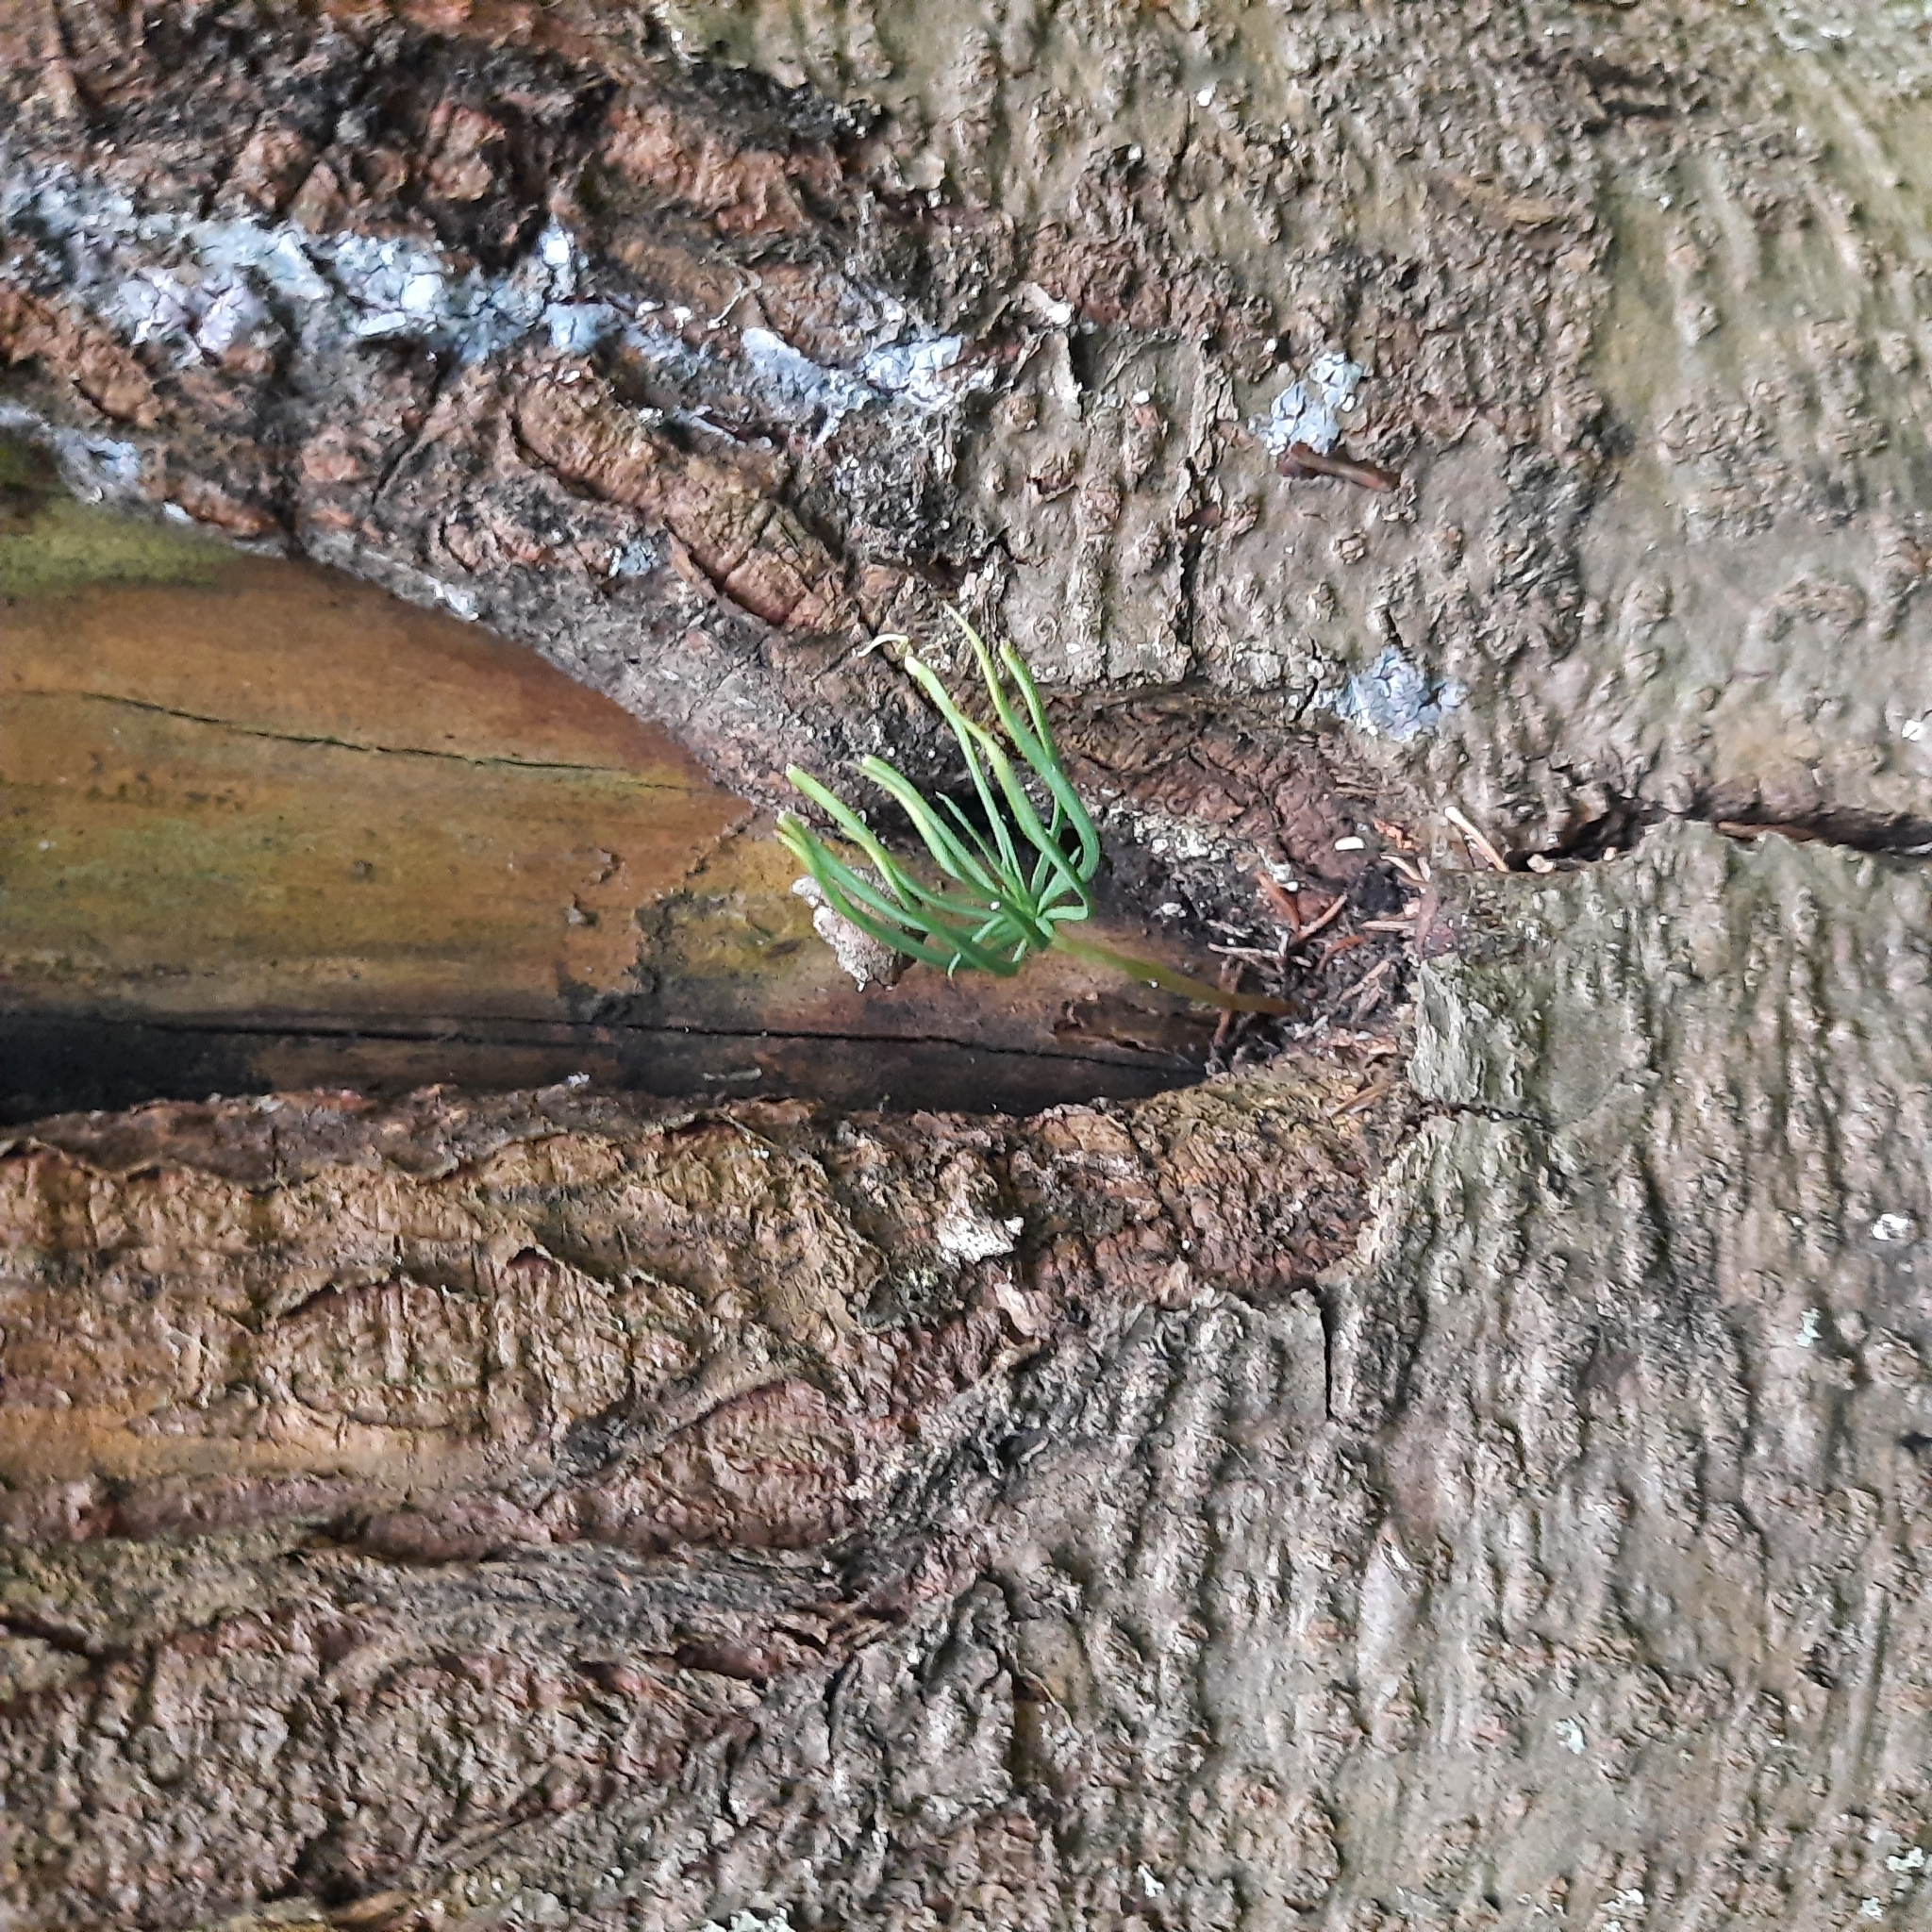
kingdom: Plantae
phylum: Tracheophyta
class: Pinopsida
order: Pinales
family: Pinaceae
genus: Pinus
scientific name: Pinus sibirica
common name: Siberian pine
